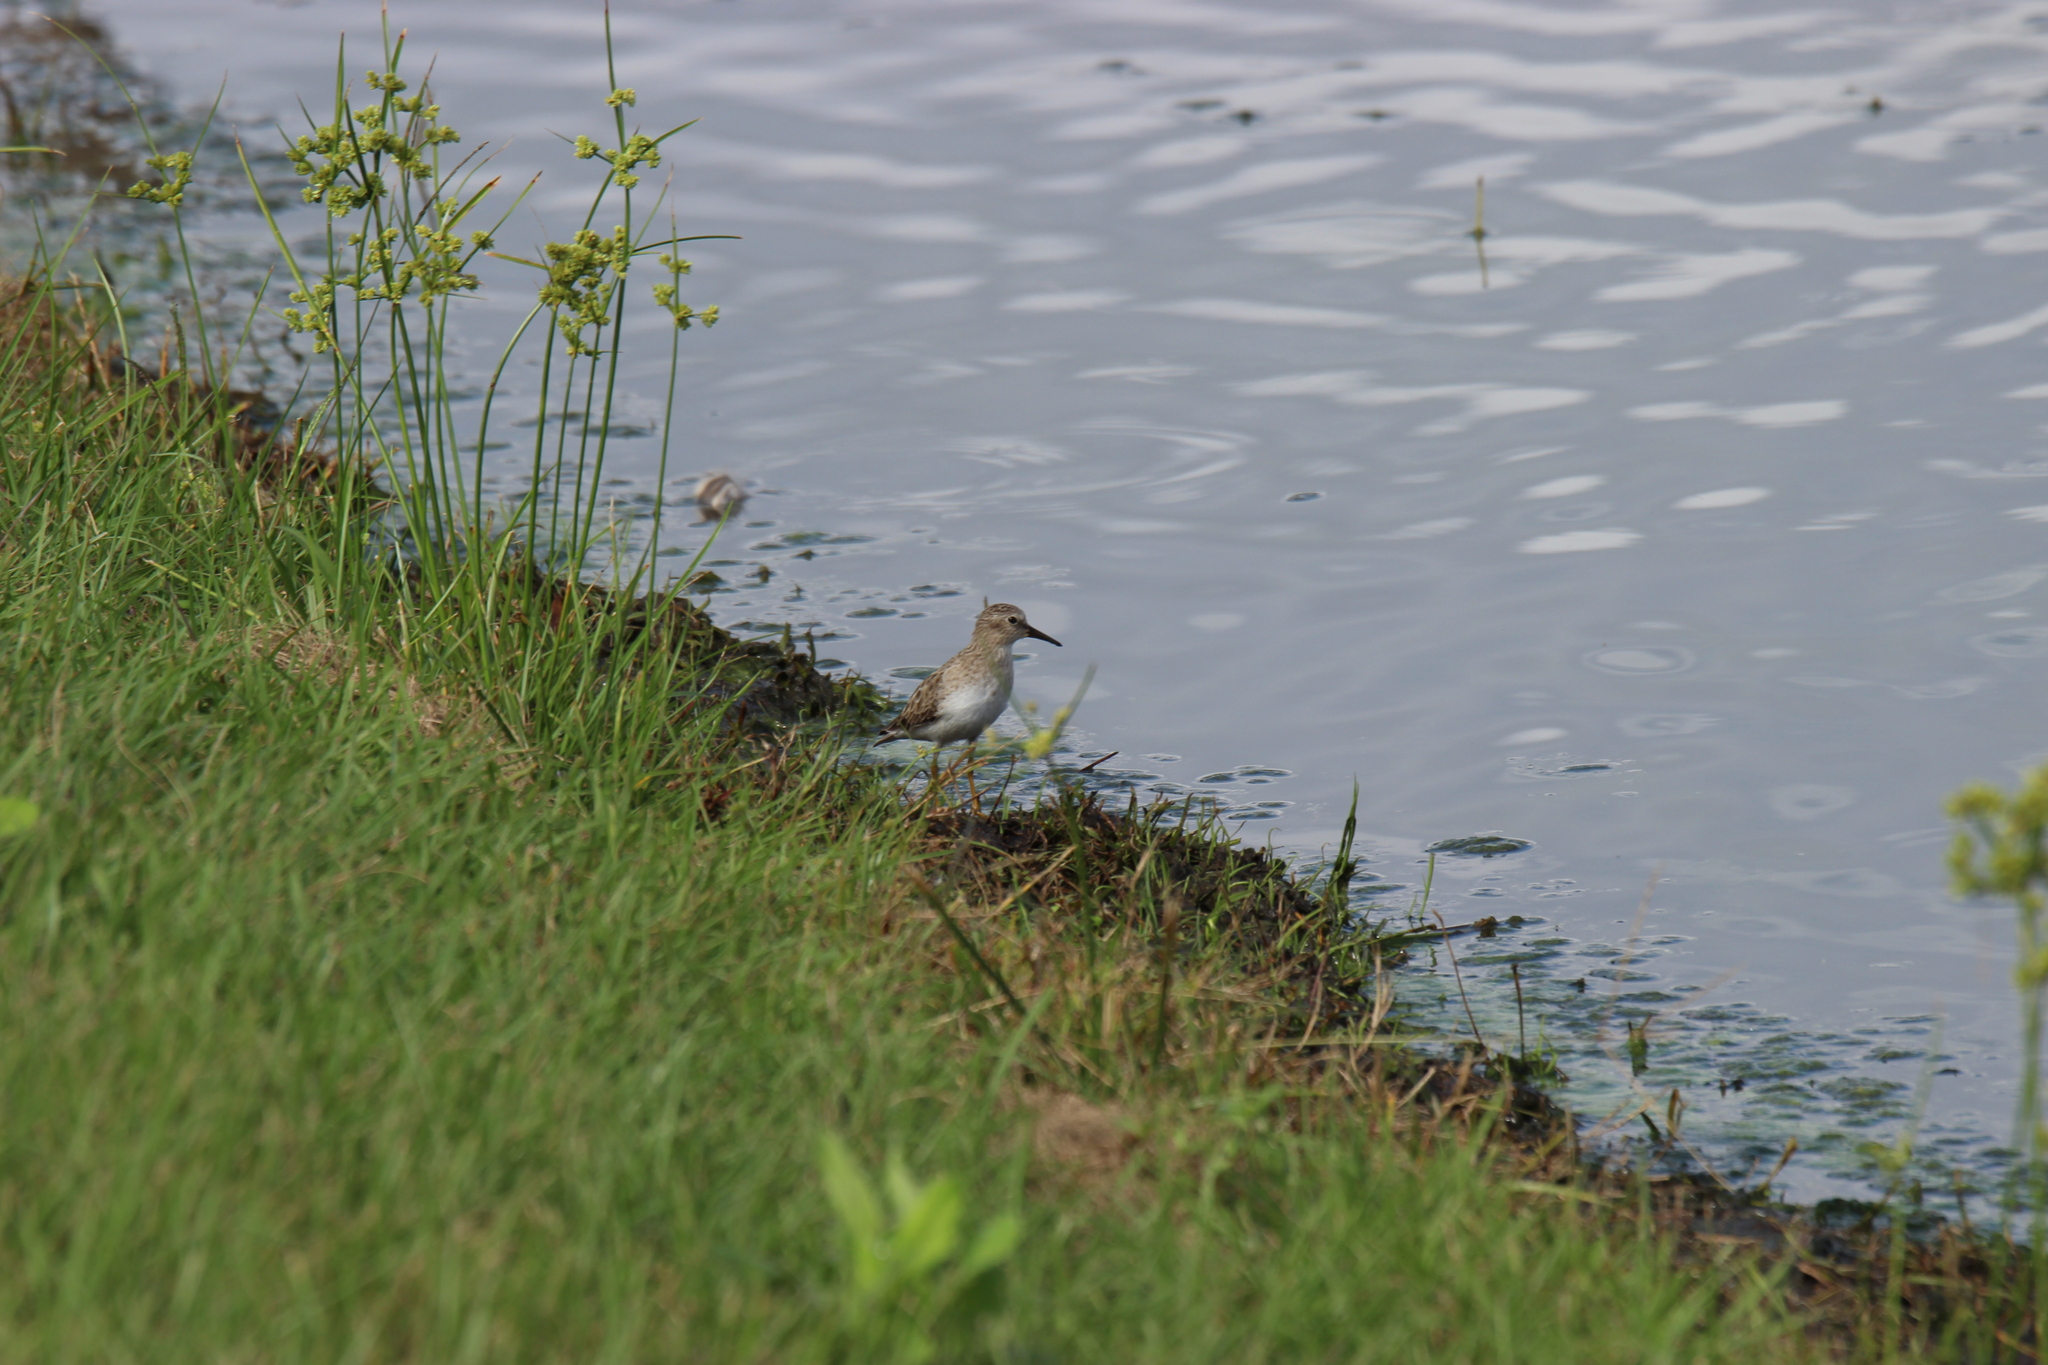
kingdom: Animalia
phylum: Chordata
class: Aves
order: Charadriiformes
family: Scolopacidae
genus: Calidris
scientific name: Calidris minutilla
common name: Least sandpiper
